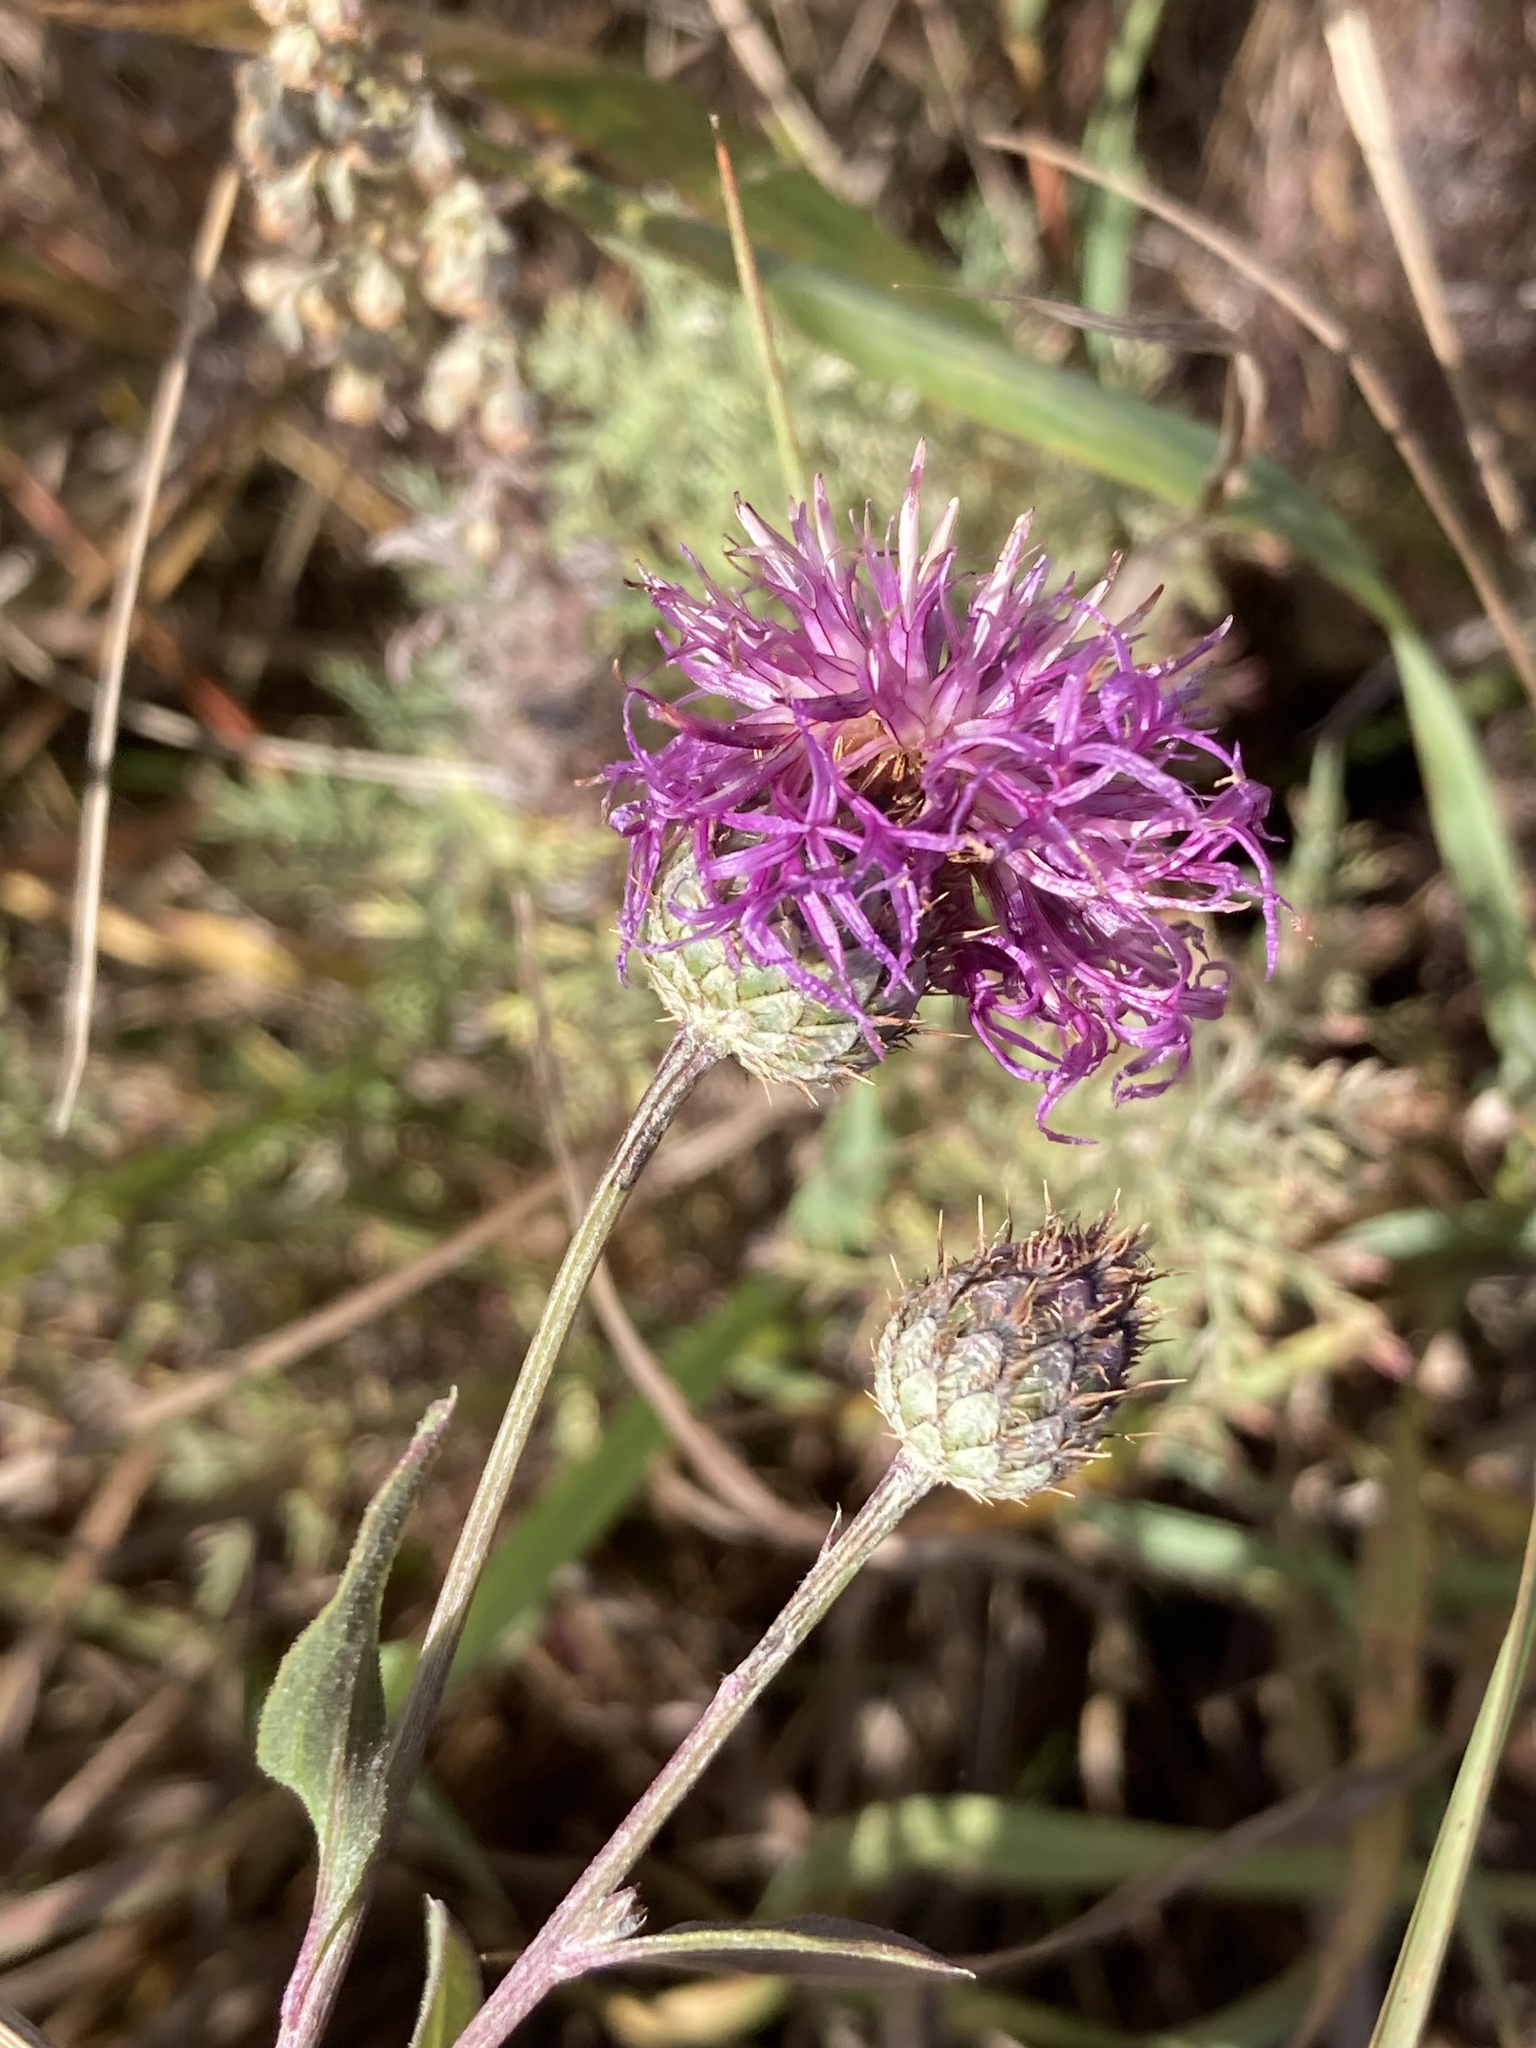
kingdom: Plantae
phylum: Tracheophyta
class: Magnoliopsida
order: Asterales
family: Asteraceae
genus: Centaurea
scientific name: Centaurea scabiosa
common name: Greater knapweed
